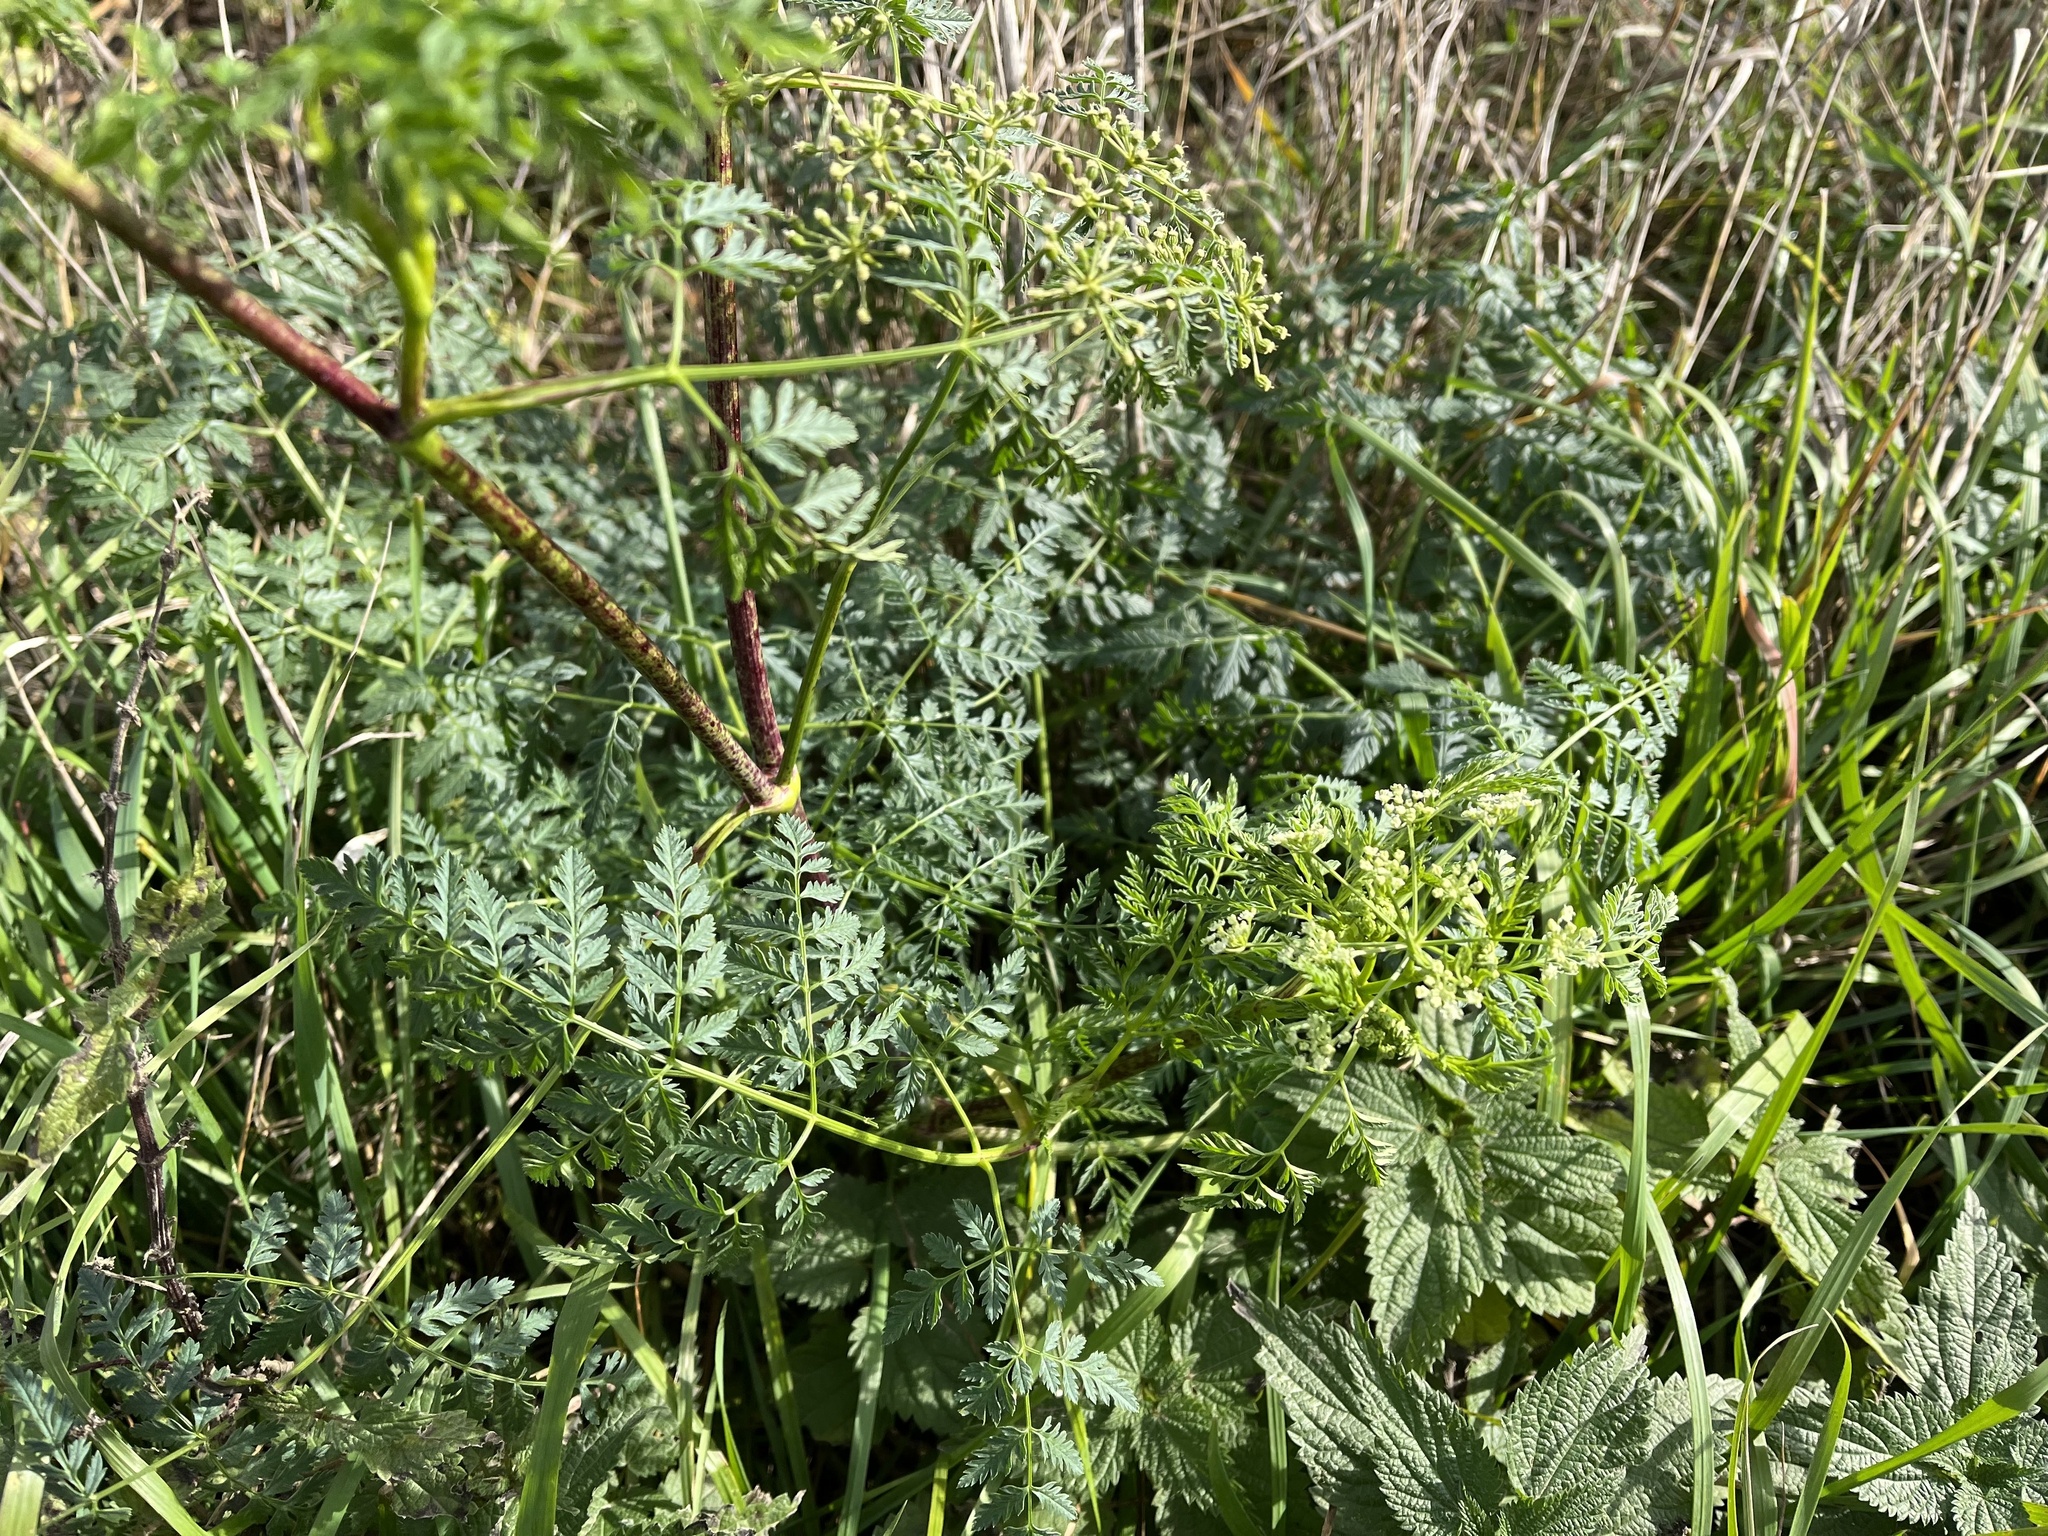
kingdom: Plantae
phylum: Tracheophyta
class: Magnoliopsida
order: Apiales
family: Apiaceae
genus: Conium
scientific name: Conium maculatum
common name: Hemlock
